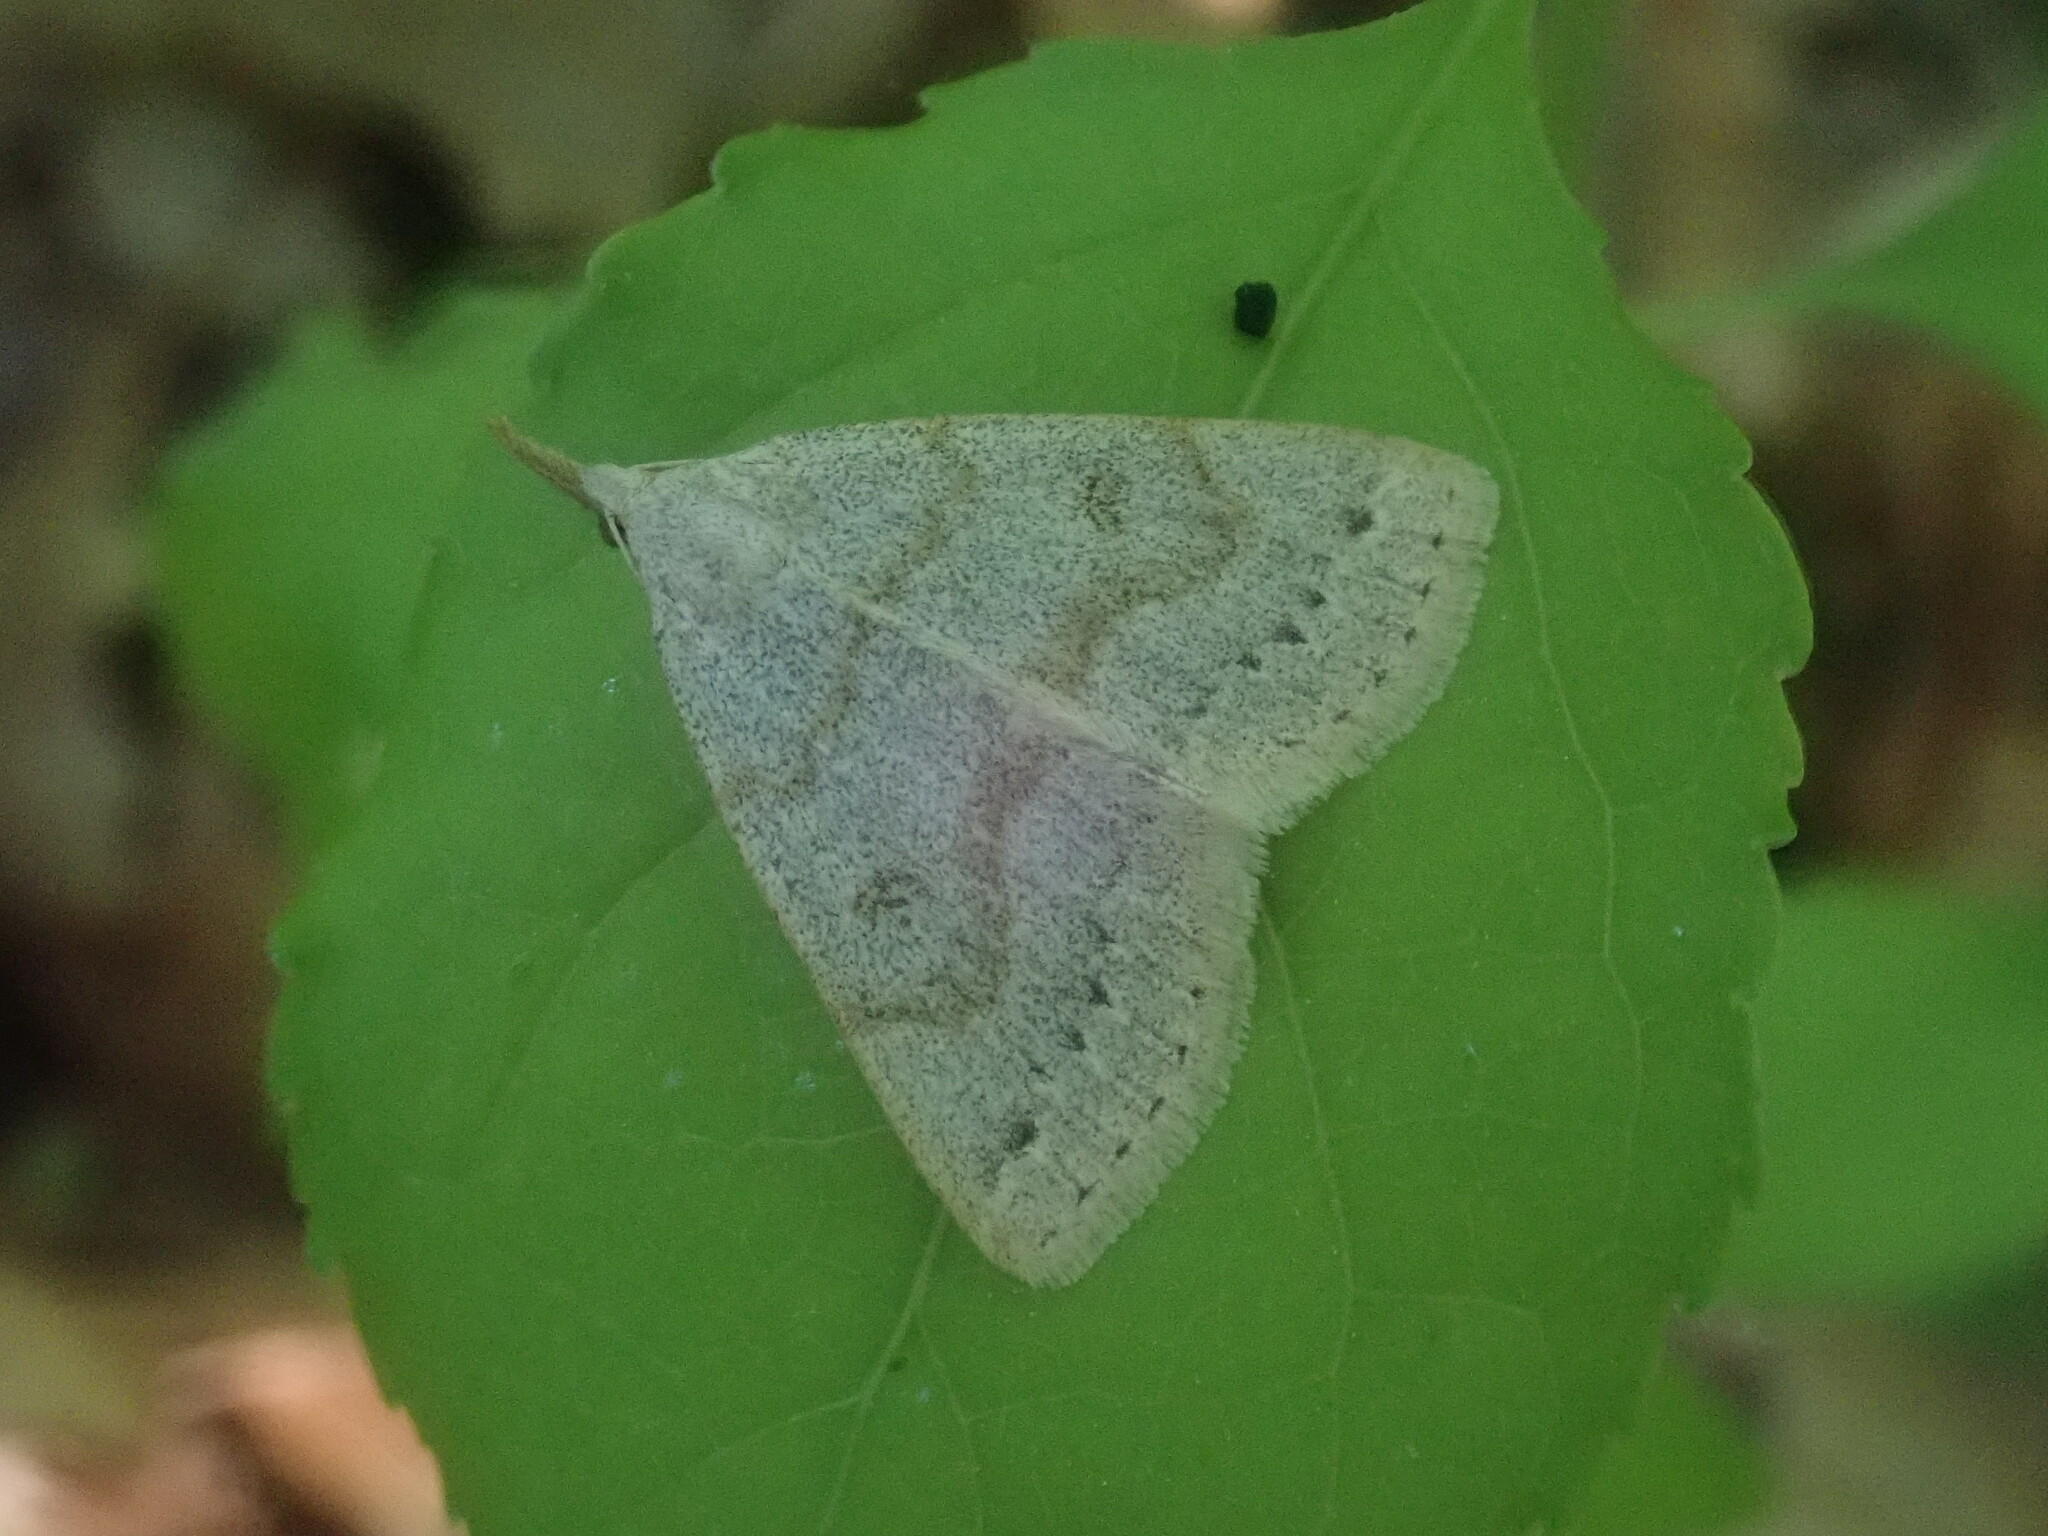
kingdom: Animalia
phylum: Arthropoda
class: Insecta
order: Lepidoptera
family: Erebidae
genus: Macrochilo
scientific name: Macrochilo morbidalis
